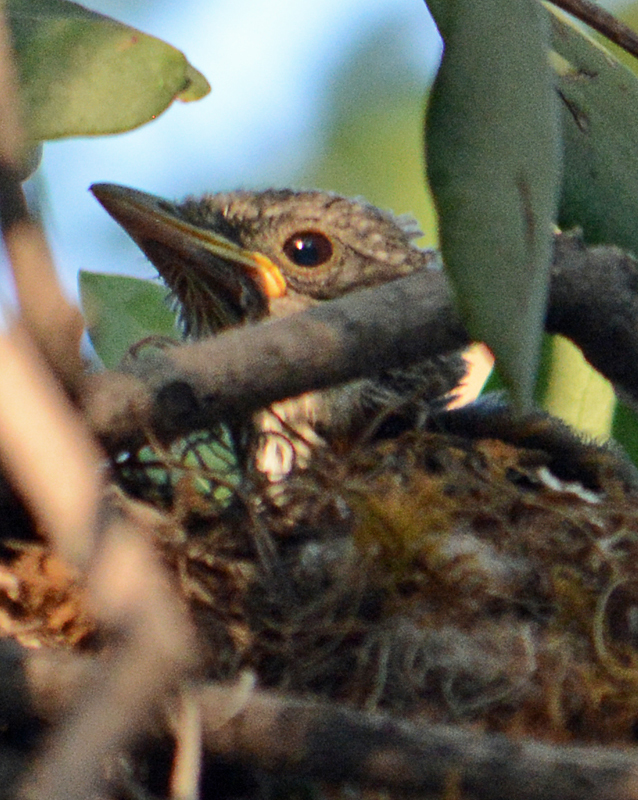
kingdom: Animalia
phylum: Chordata
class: Aves
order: Passeriformes
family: Turdidae
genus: Turdus
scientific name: Turdus rufopalliatus
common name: Rufous-backed robin
